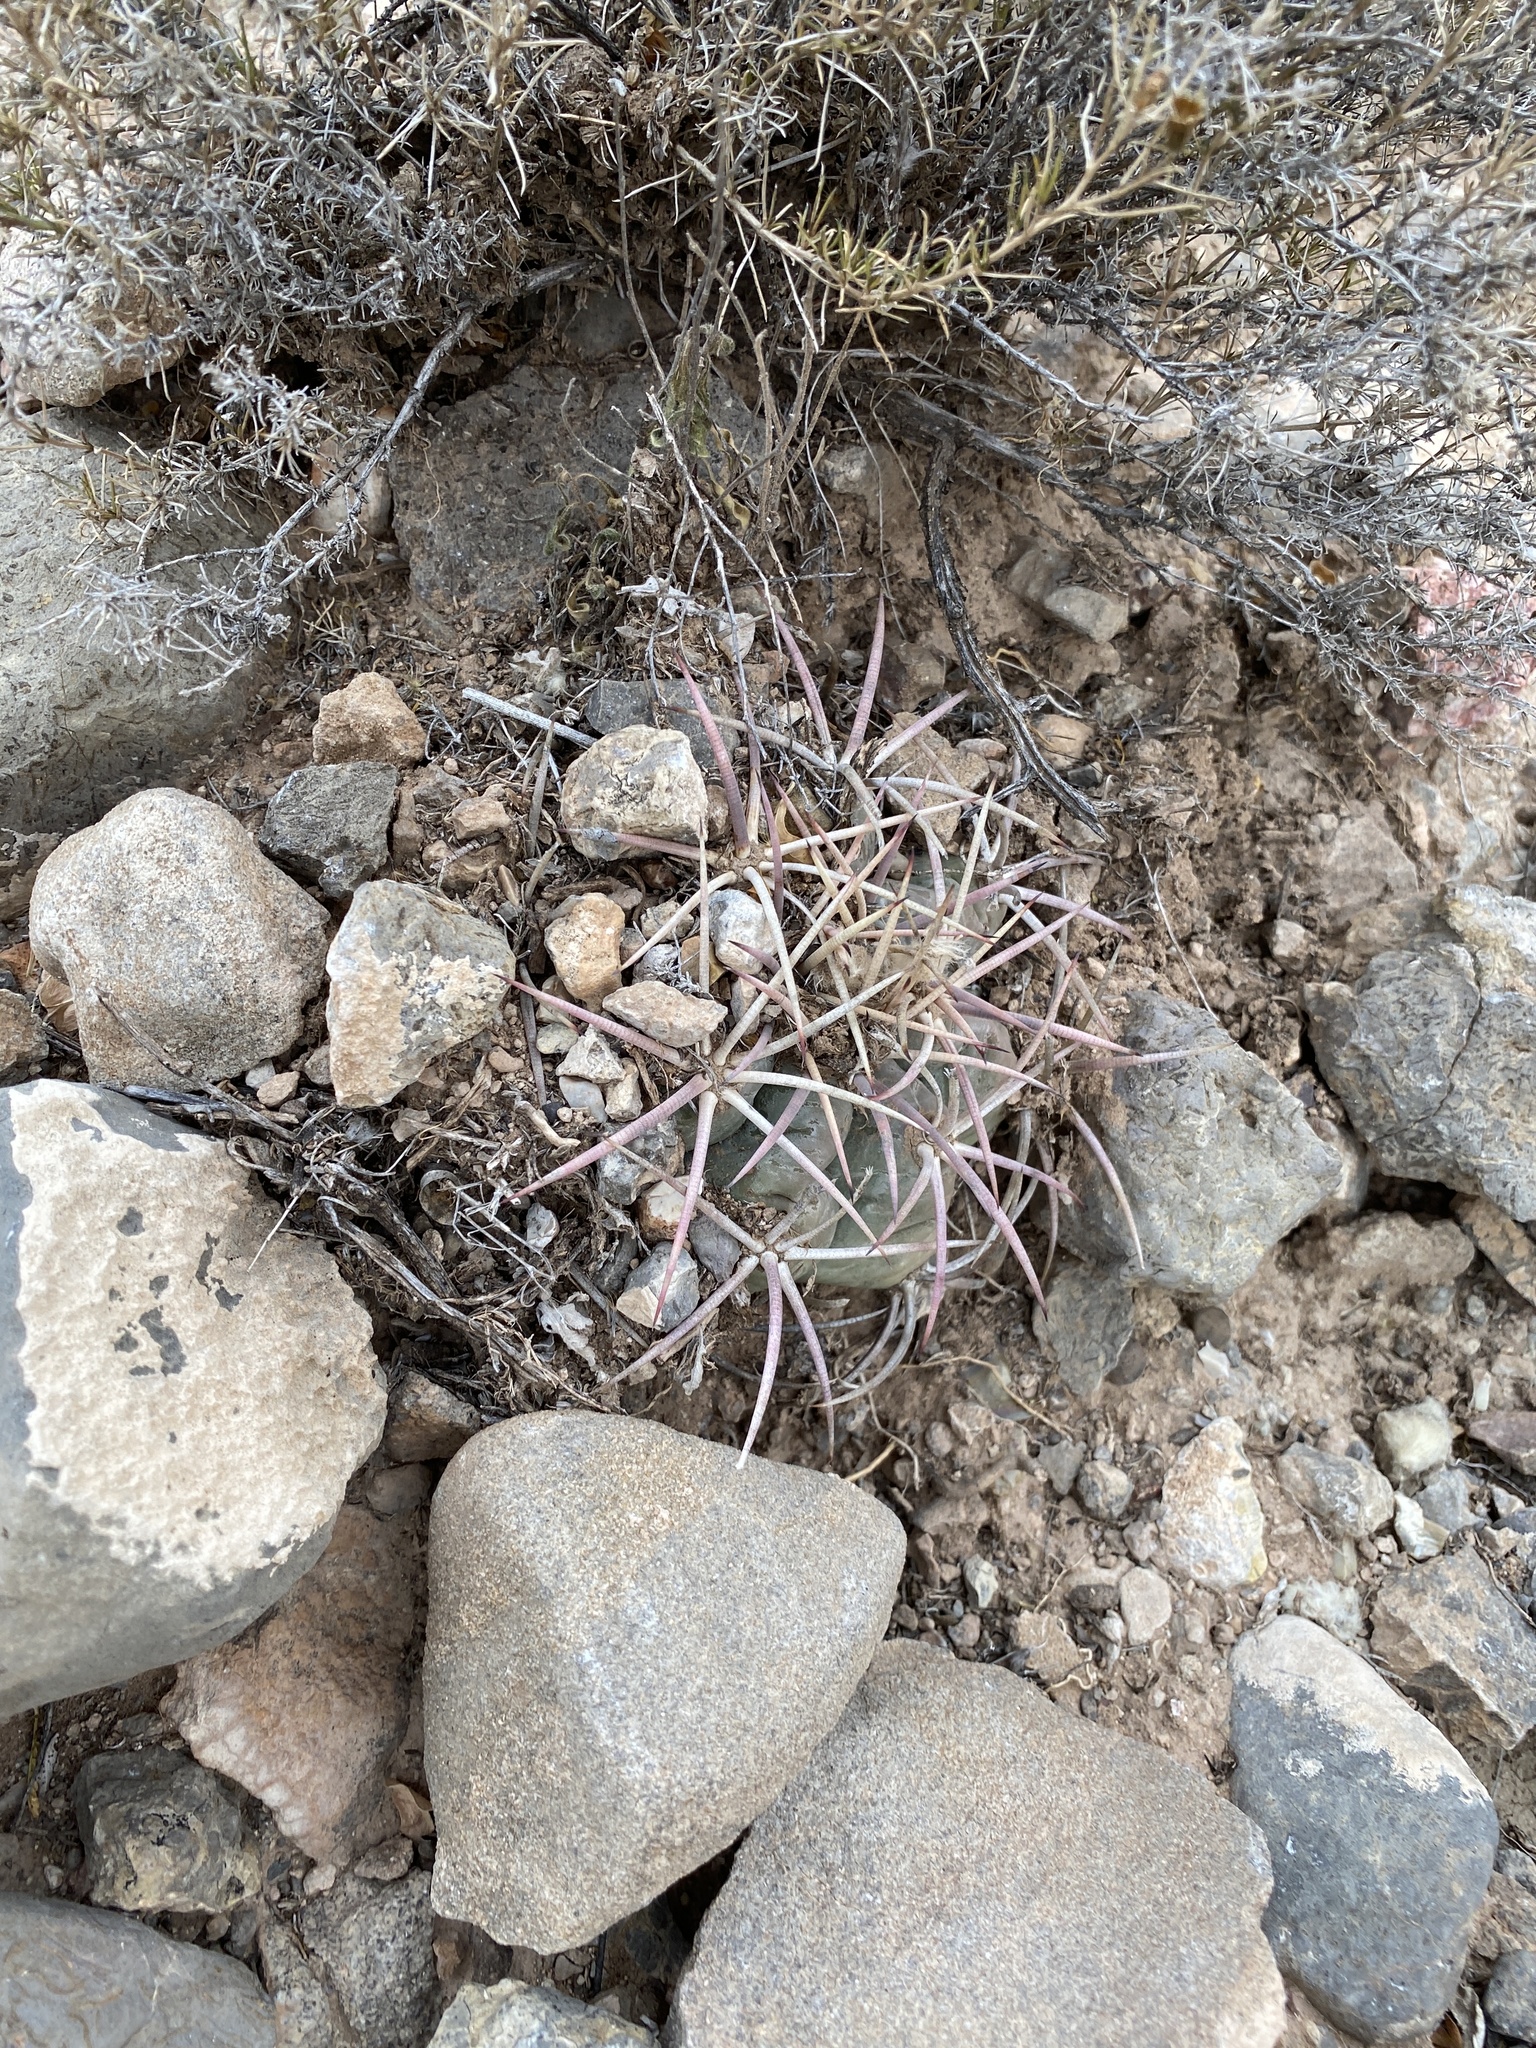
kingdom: Plantae
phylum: Tracheophyta
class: Magnoliopsida
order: Caryophyllales
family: Cactaceae
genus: Echinocactus
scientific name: Echinocactus horizonthalonius
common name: Devilshead
